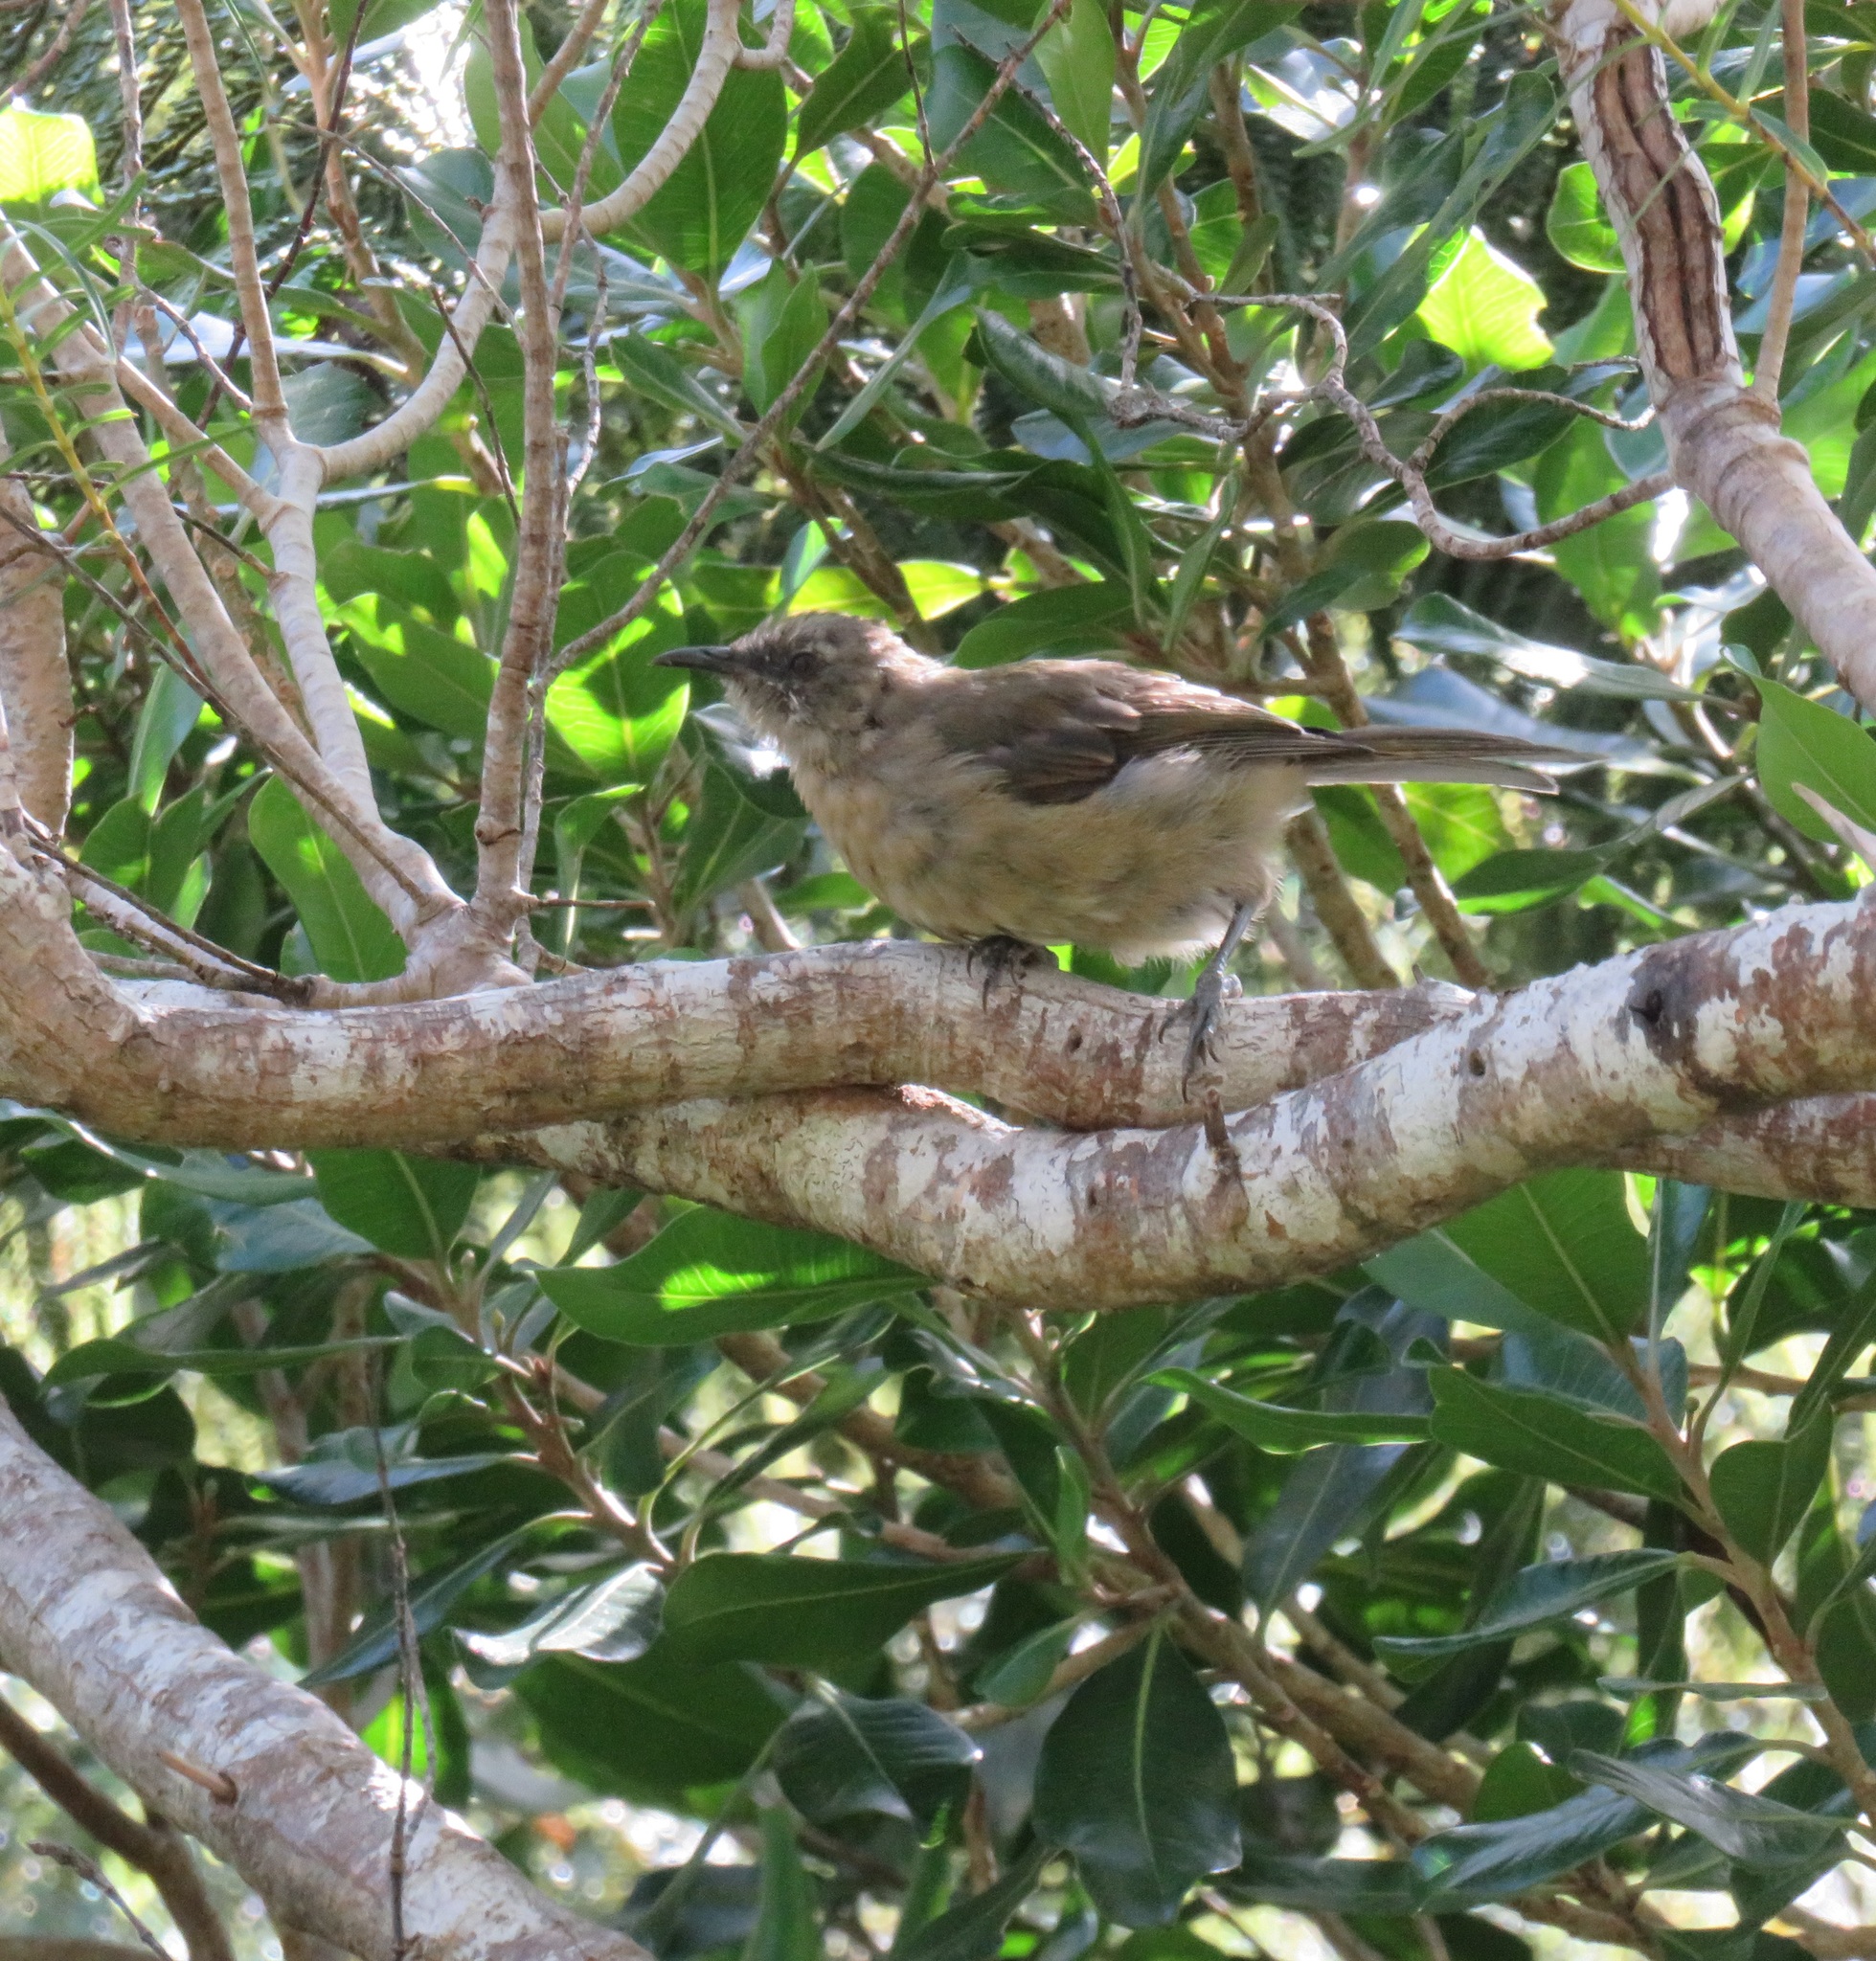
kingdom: Animalia
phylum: Chordata
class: Aves
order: Passeriformes
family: Meliphagidae
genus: Anthornis
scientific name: Anthornis melanura
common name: New zealand bellbird
